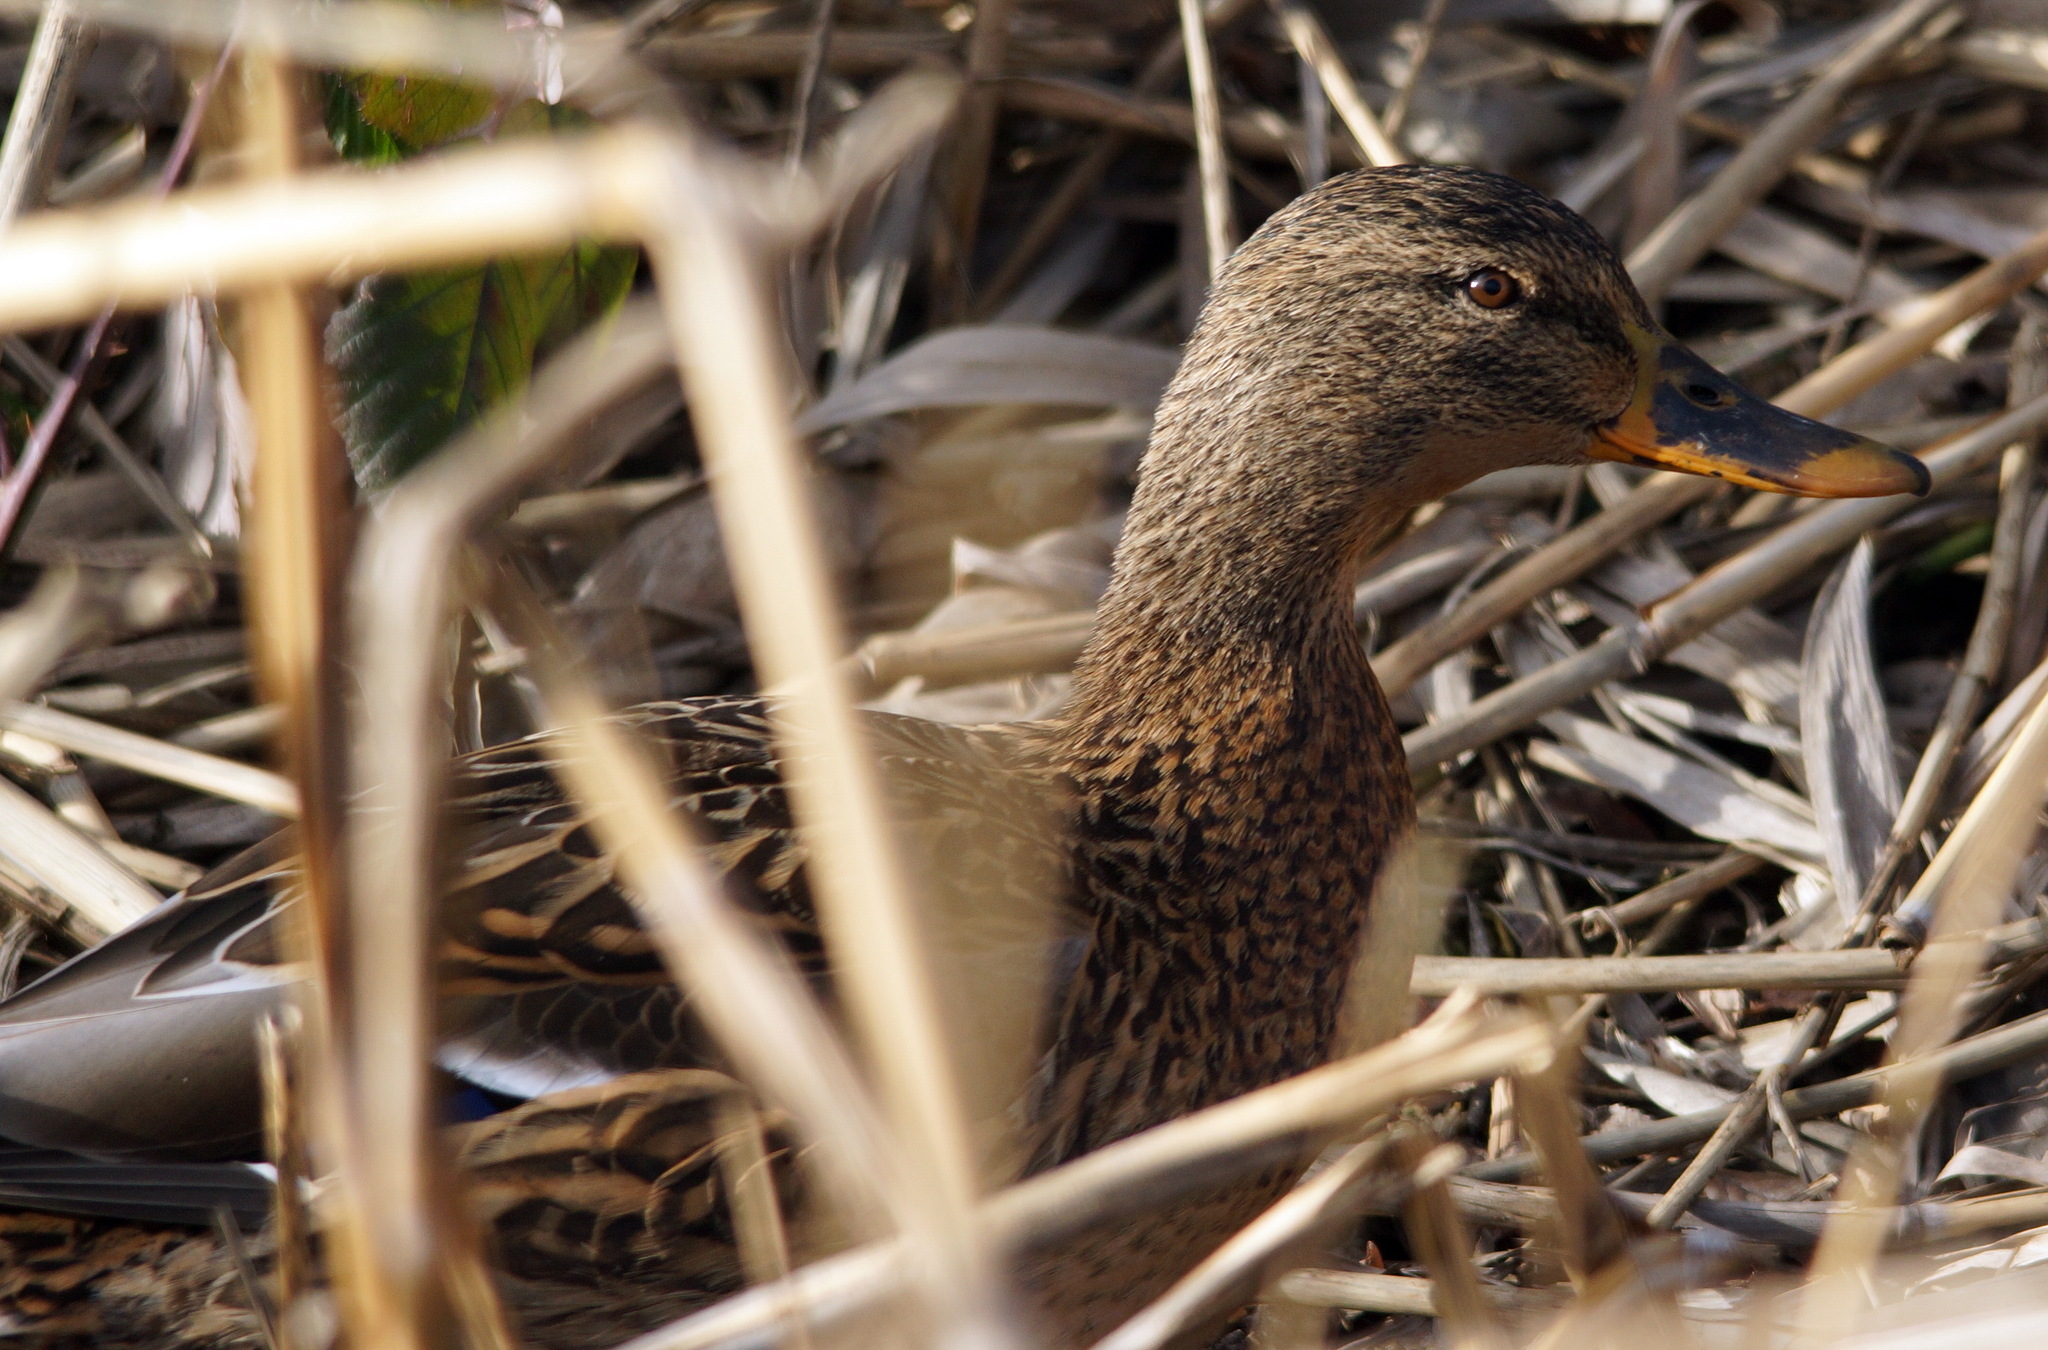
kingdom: Animalia
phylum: Chordata
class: Aves
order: Anseriformes
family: Anatidae
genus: Anas
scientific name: Anas platyrhynchos
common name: Mallard
